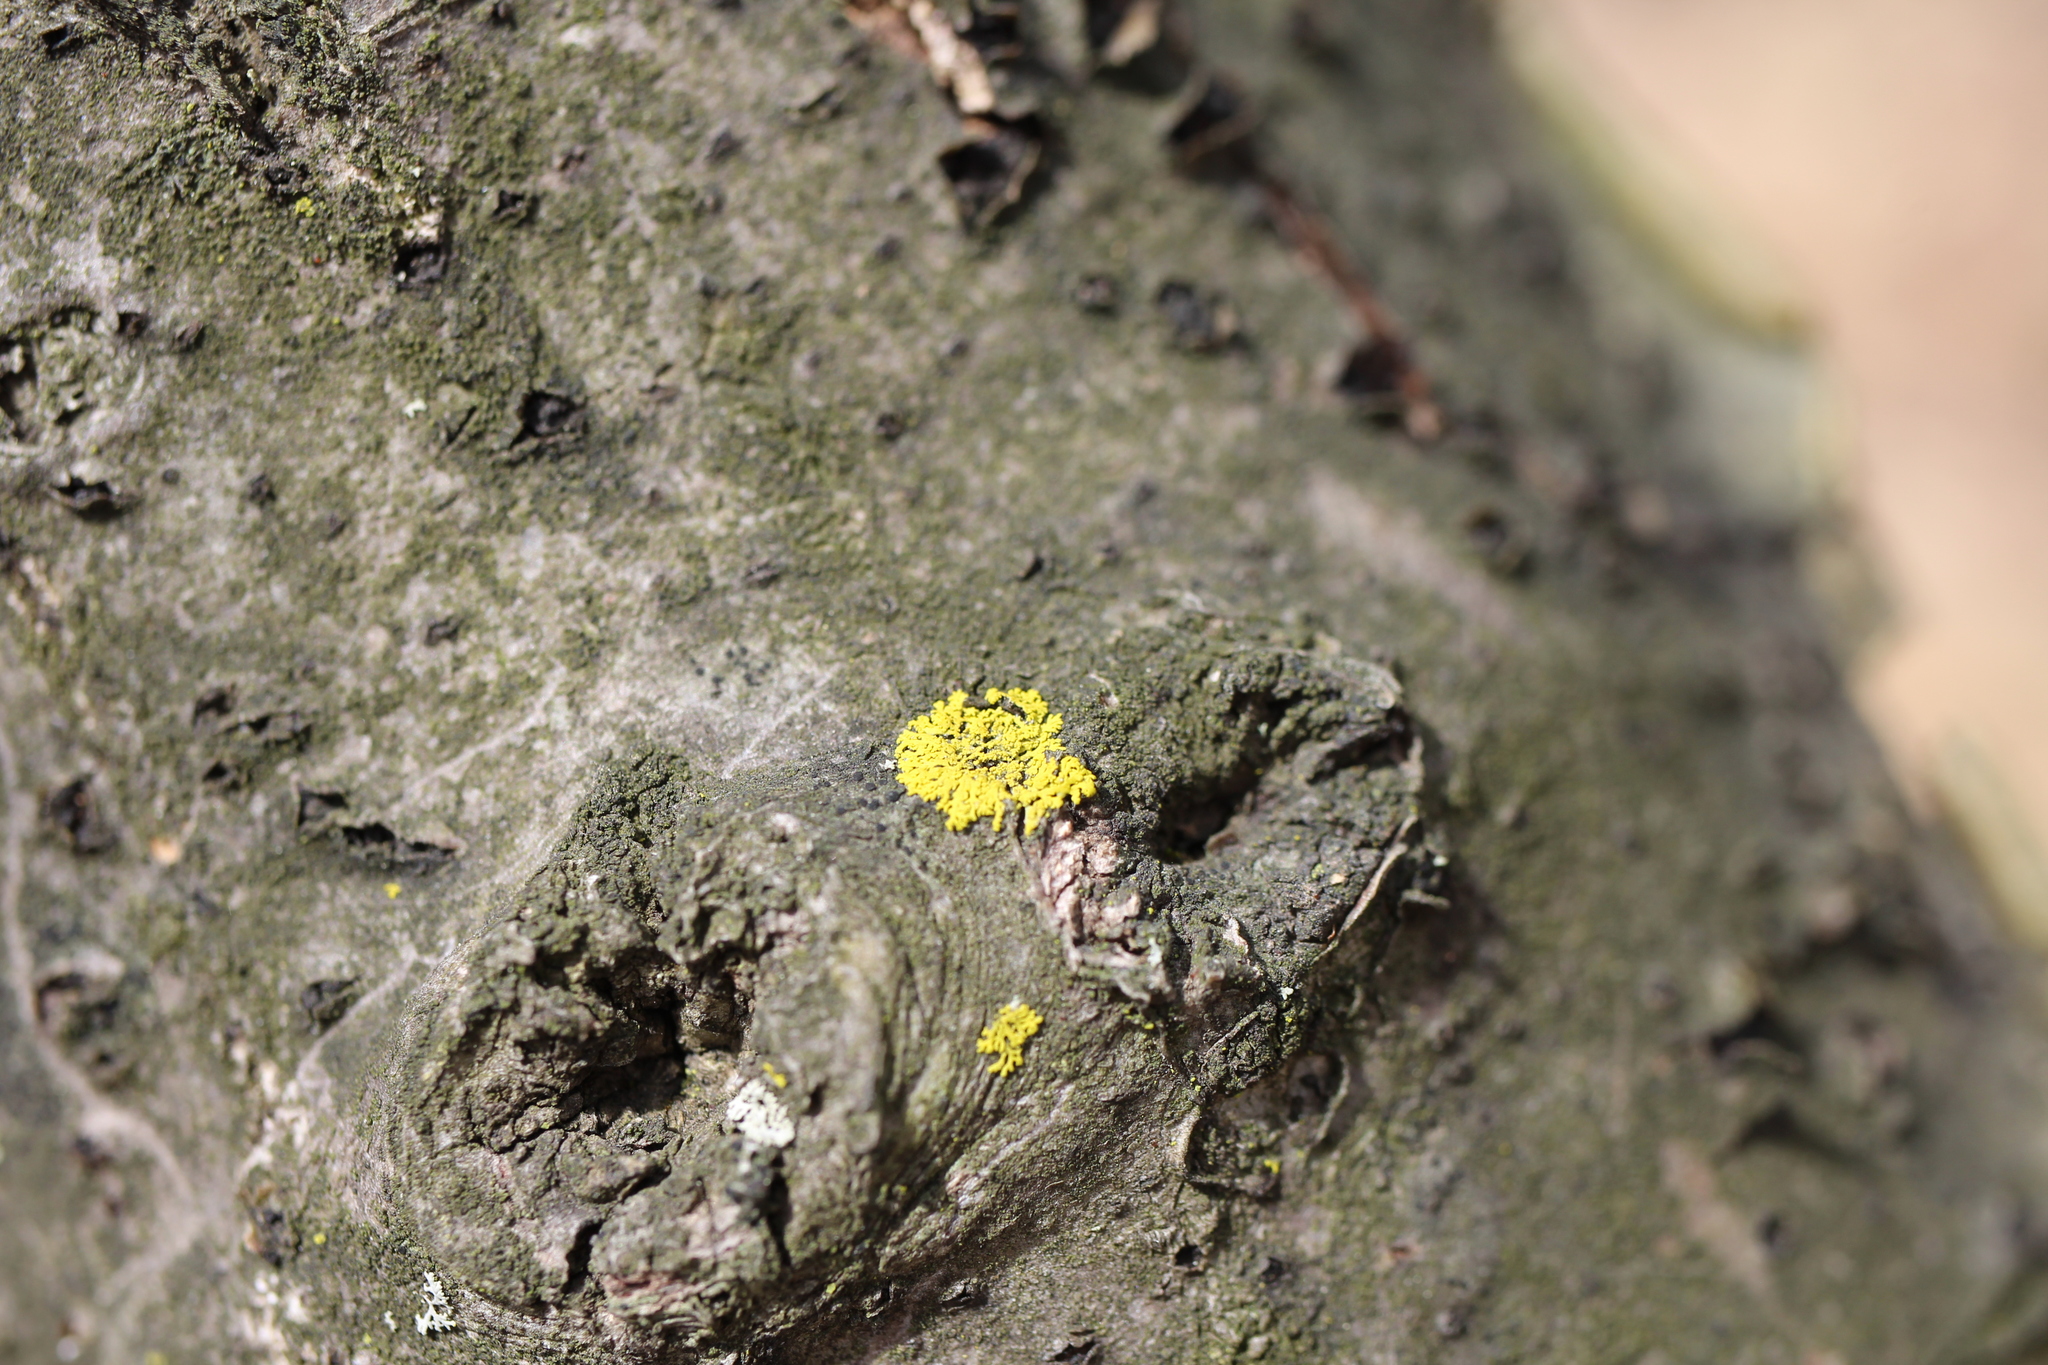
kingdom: Fungi
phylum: Ascomycota
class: Candelariomycetes
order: Candelariales
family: Candelariaceae
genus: Candelaria
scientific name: Candelaria concolor
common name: Candleflame lichen
